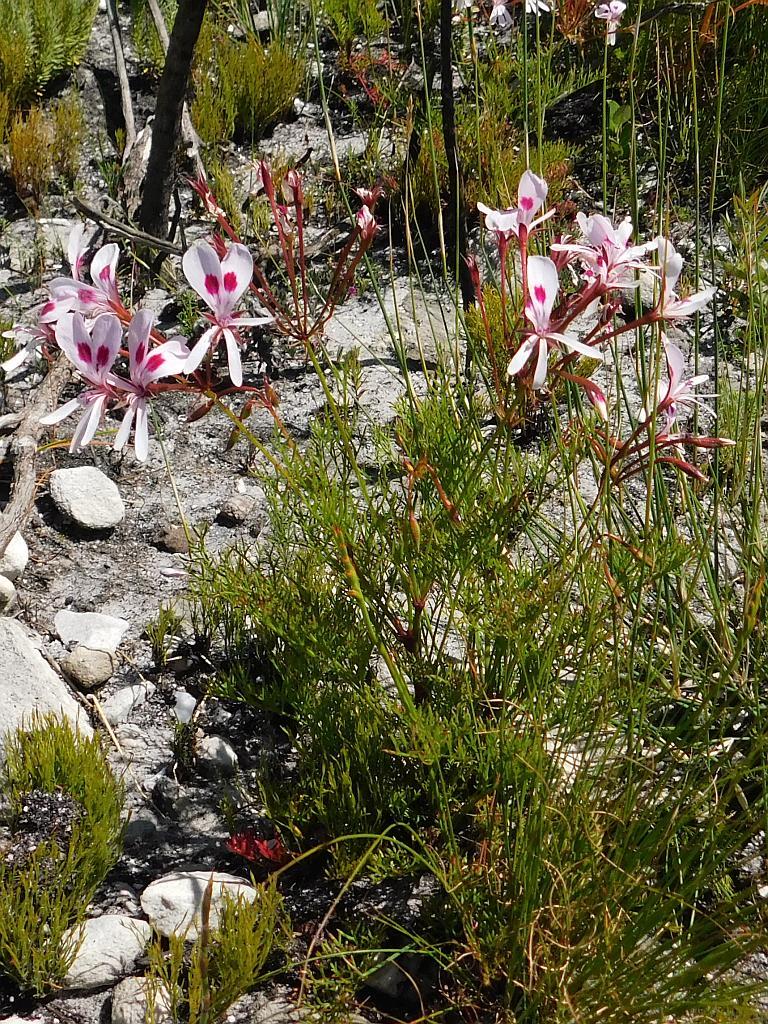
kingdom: Plantae
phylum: Tracheophyta
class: Magnoliopsida
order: Geraniales
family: Geraniaceae
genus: Pelargonium
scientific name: Pelargonium artemisiifolium
